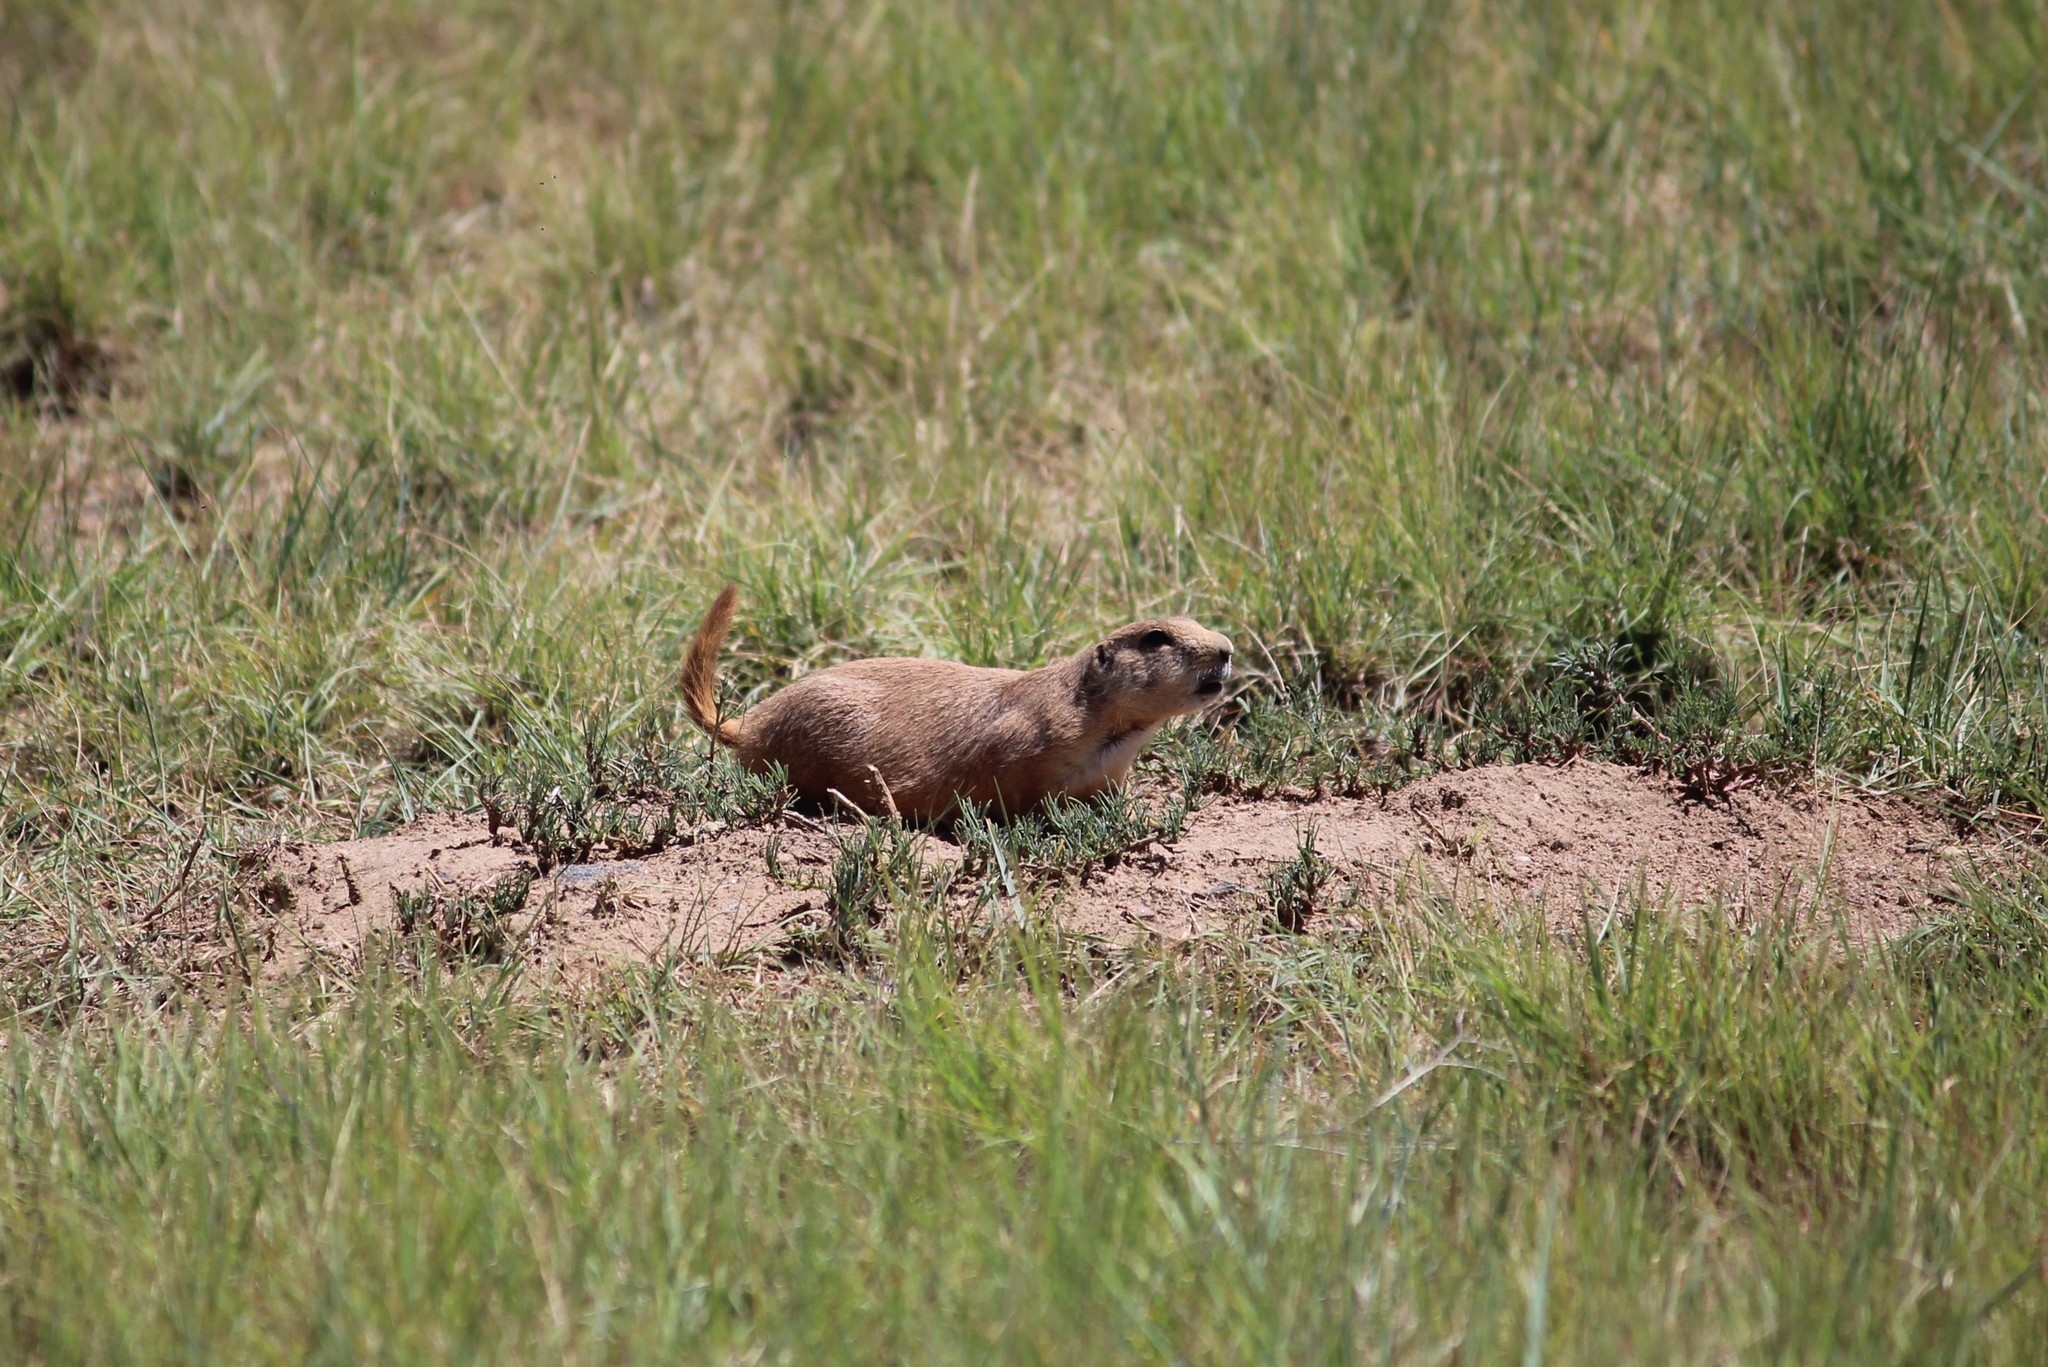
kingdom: Animalia
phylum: Chordata
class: Mammalia
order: Rodentia
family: Sciuridae
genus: Cynomys
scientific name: Cynomys ludovicianus
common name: Black-tailed prairie dog
